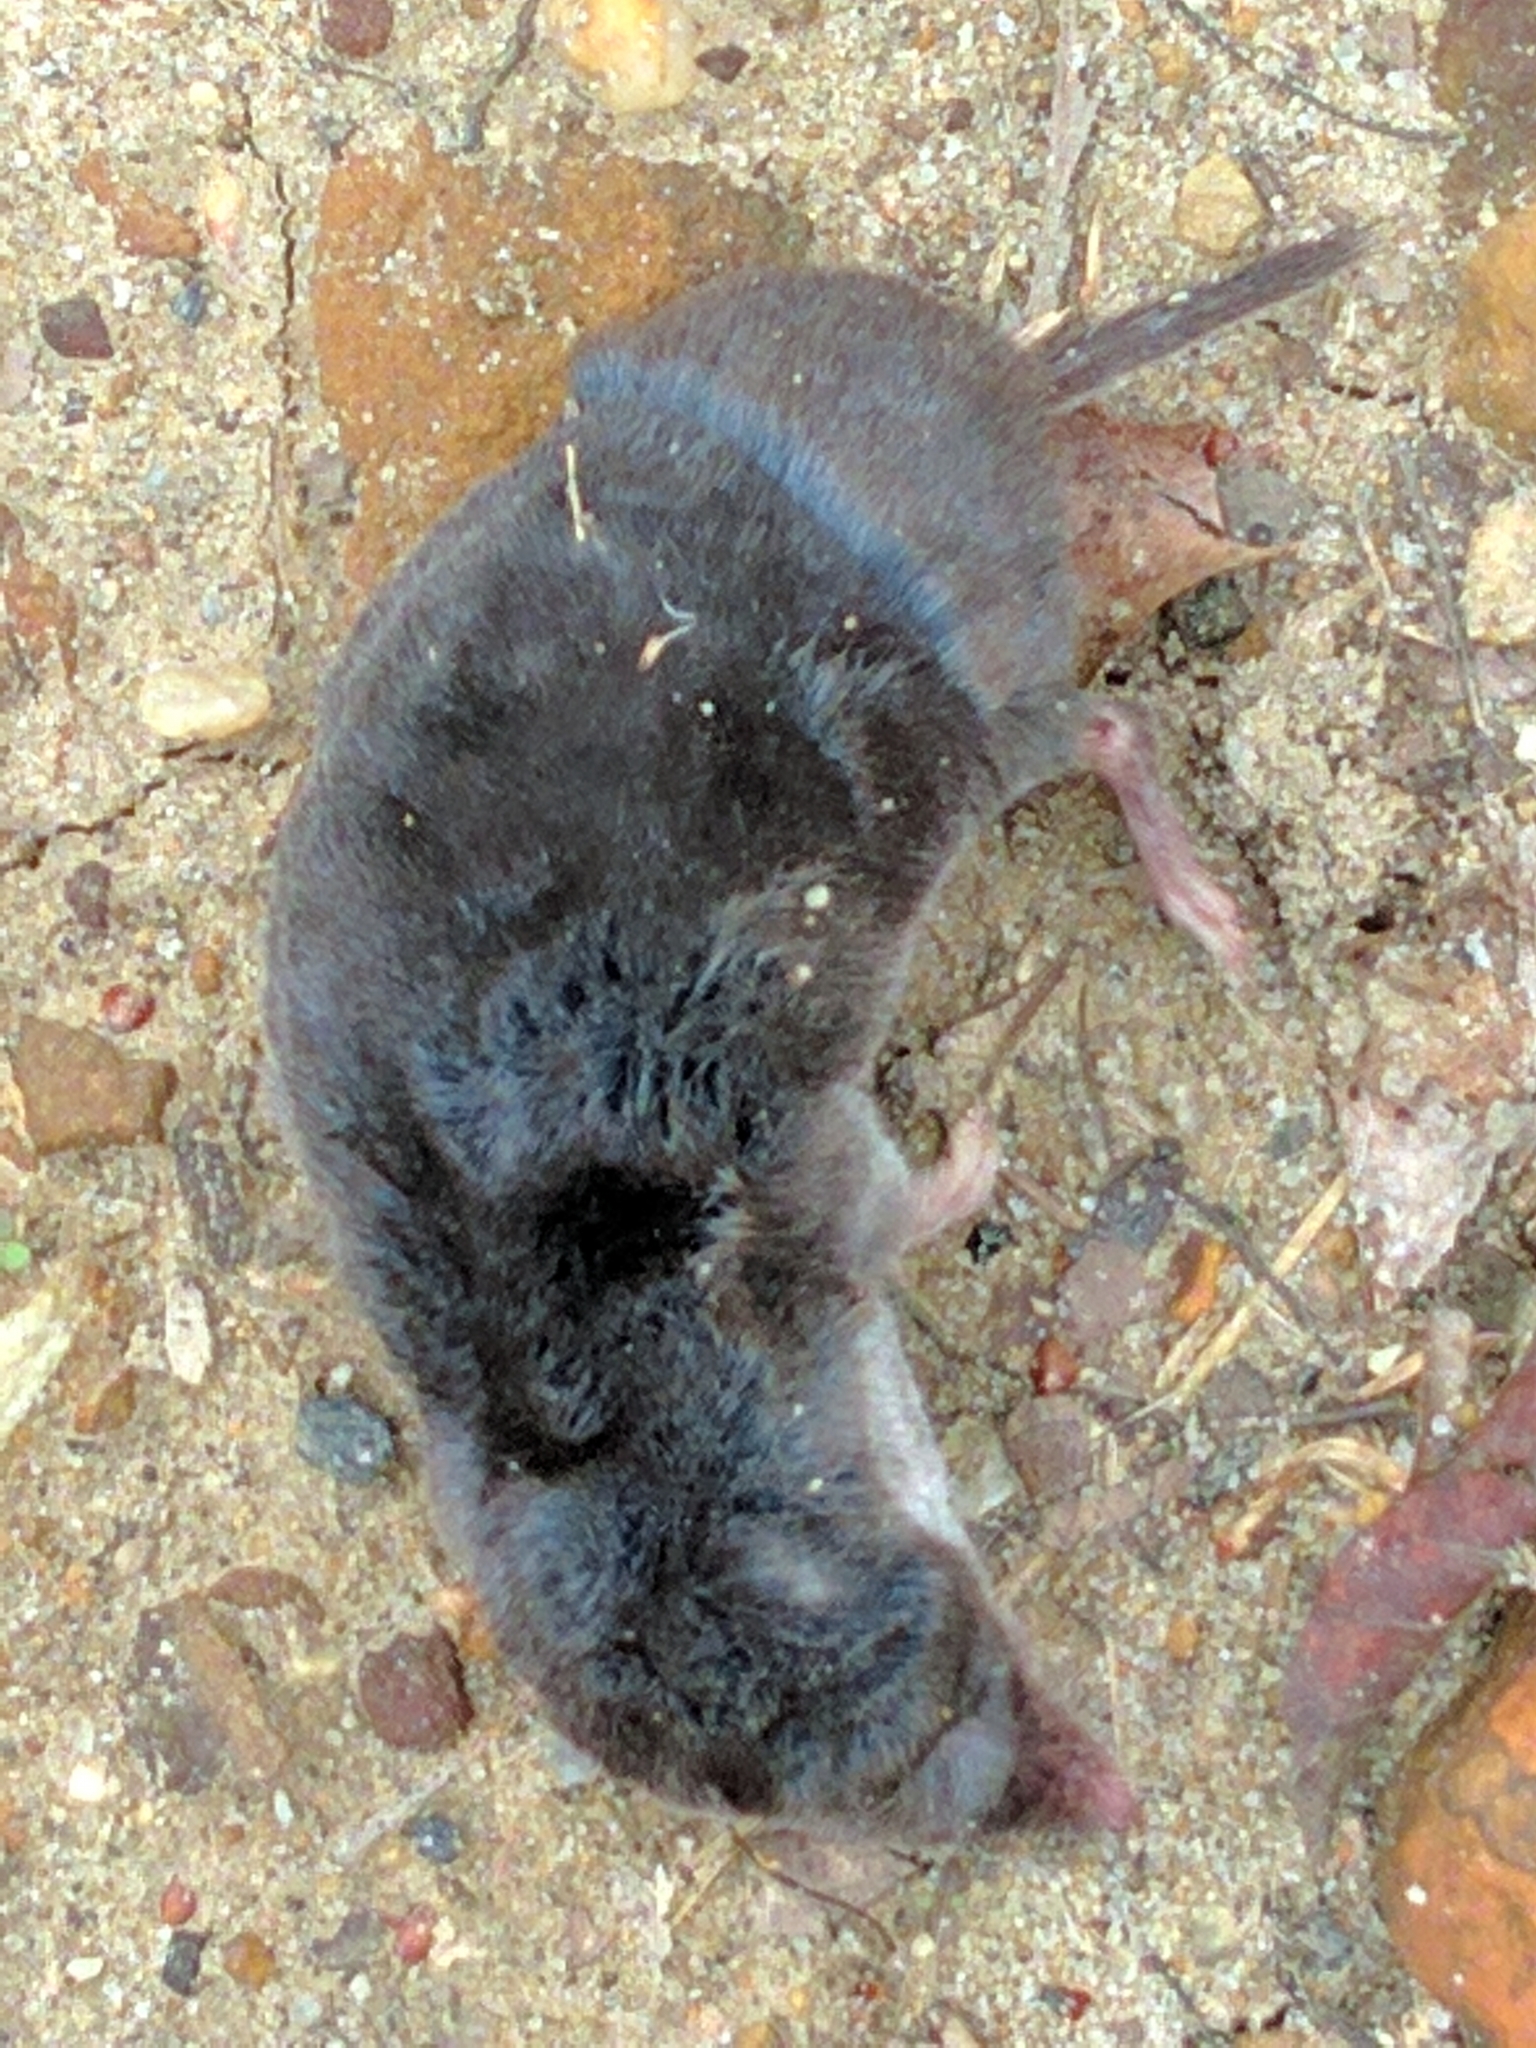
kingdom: Animalia
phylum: Chordata
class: Mammalia
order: Soricomorpha
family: Soricidae
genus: Blarina
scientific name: Blarina brevicauda
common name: Northern short-tailed shrew
